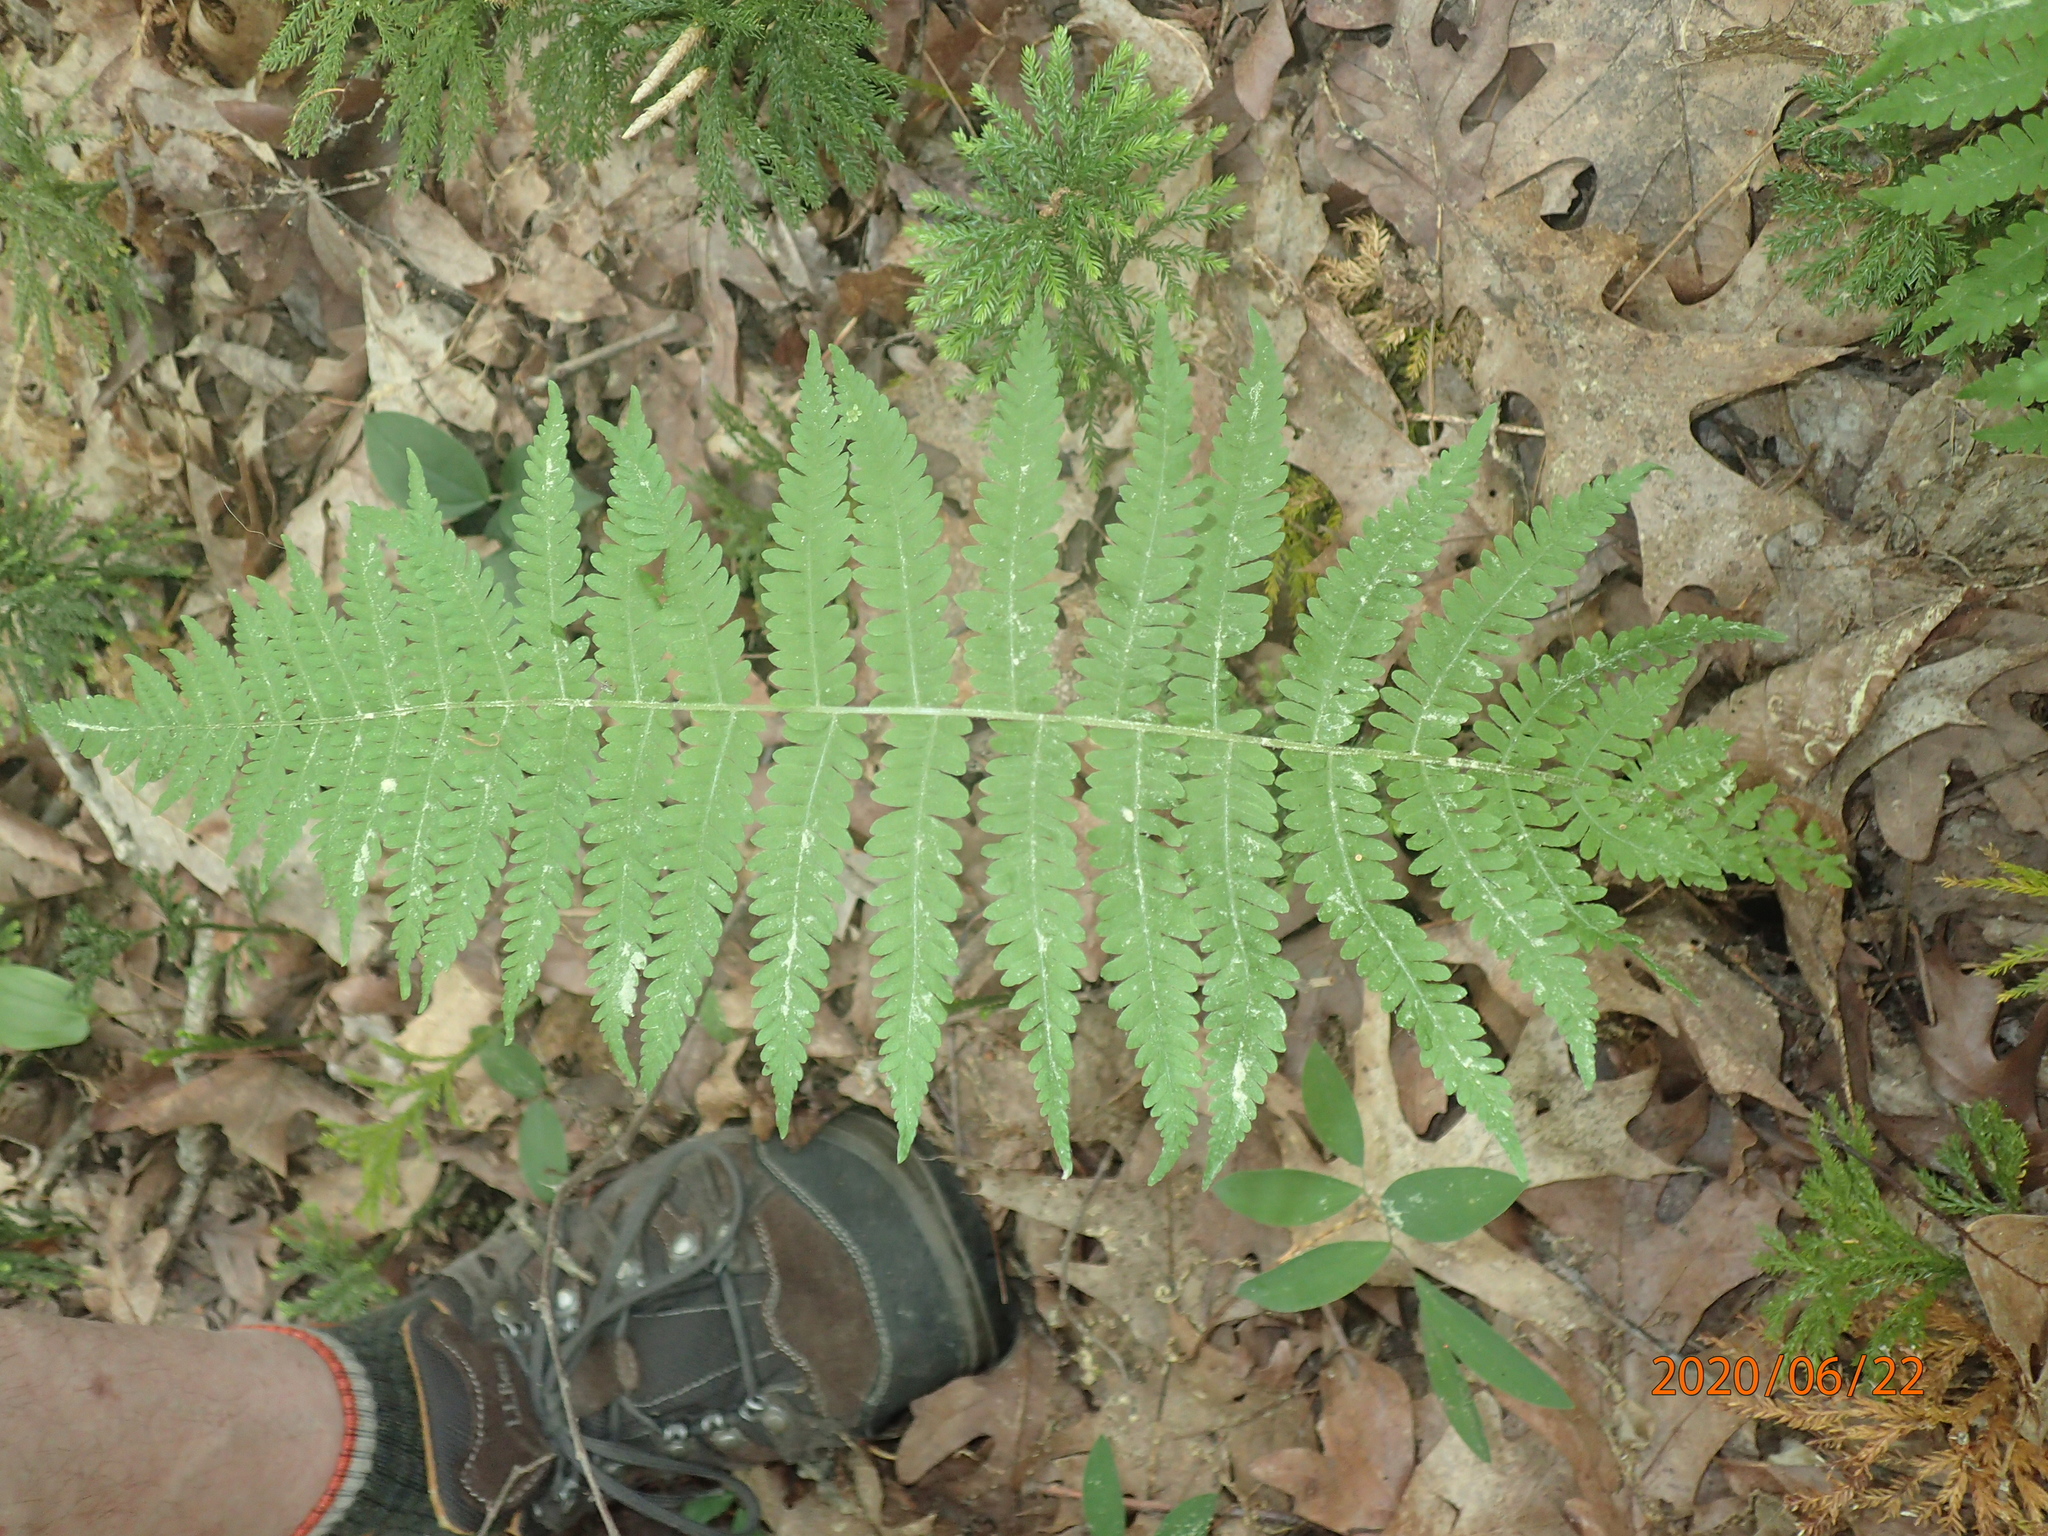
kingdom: Plantae
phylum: Tracheophyta
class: Polypodiopsida
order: Polypodiales
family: Thelypteridaceae
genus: Amauropelta
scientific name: Amauropelta noveboracensis
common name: New york fern
